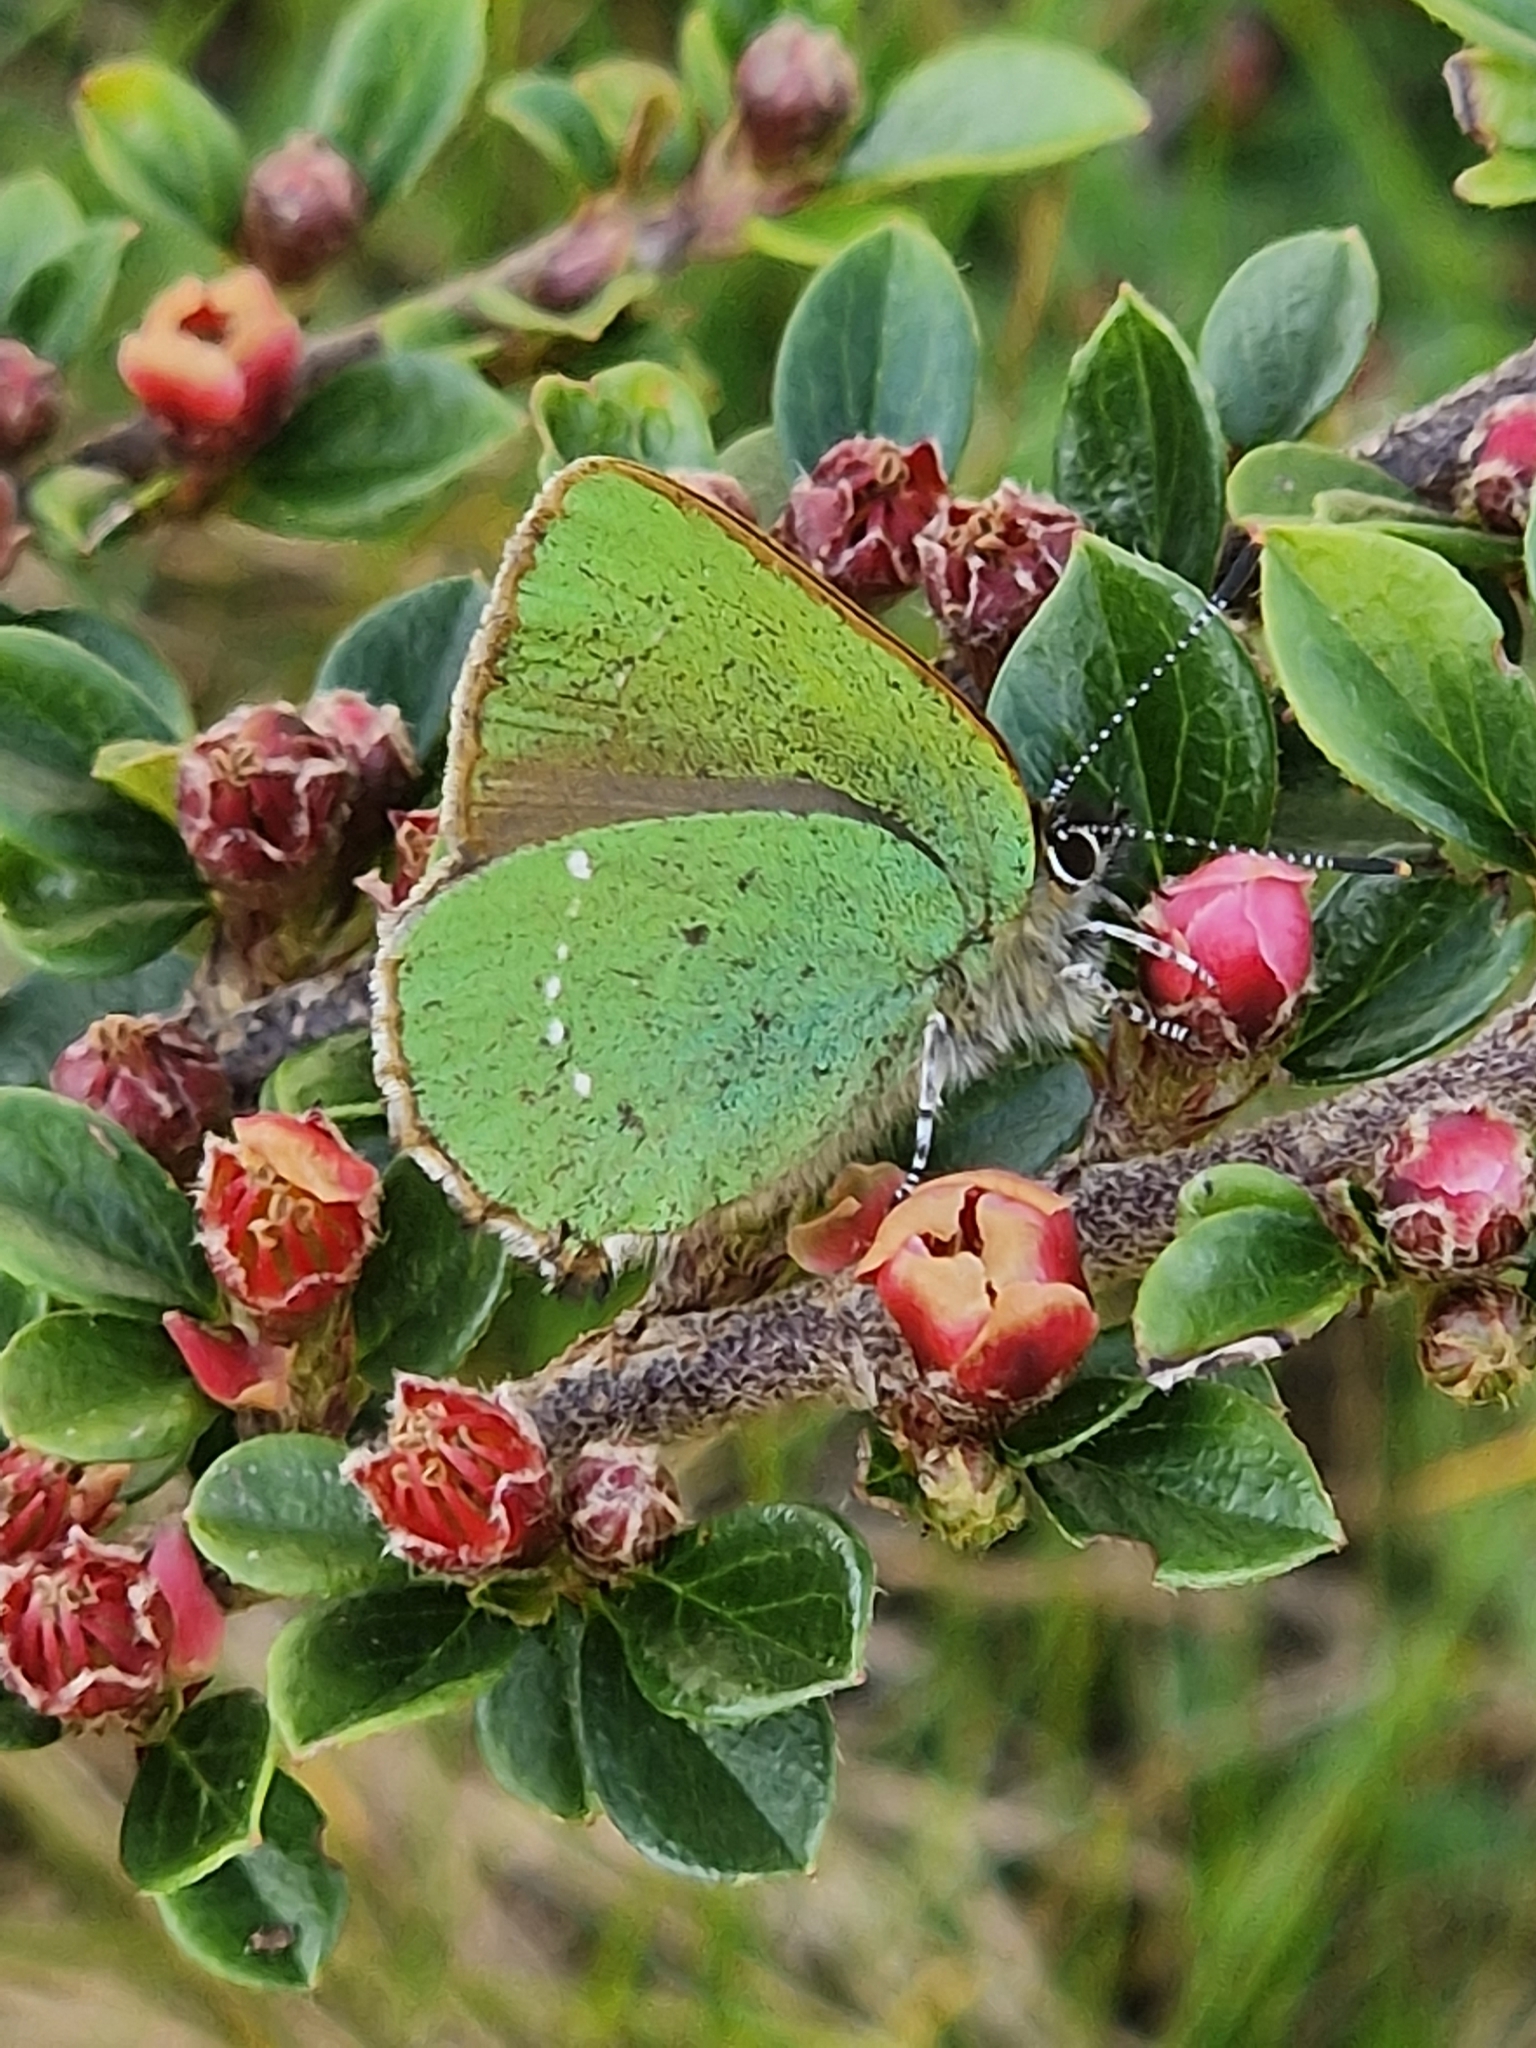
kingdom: Animalia
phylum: Arthropoda
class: Insecta
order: Lepidoptera
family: Lycaenidae
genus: Callophrys
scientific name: Callophrys rubi
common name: Green hairstreak
